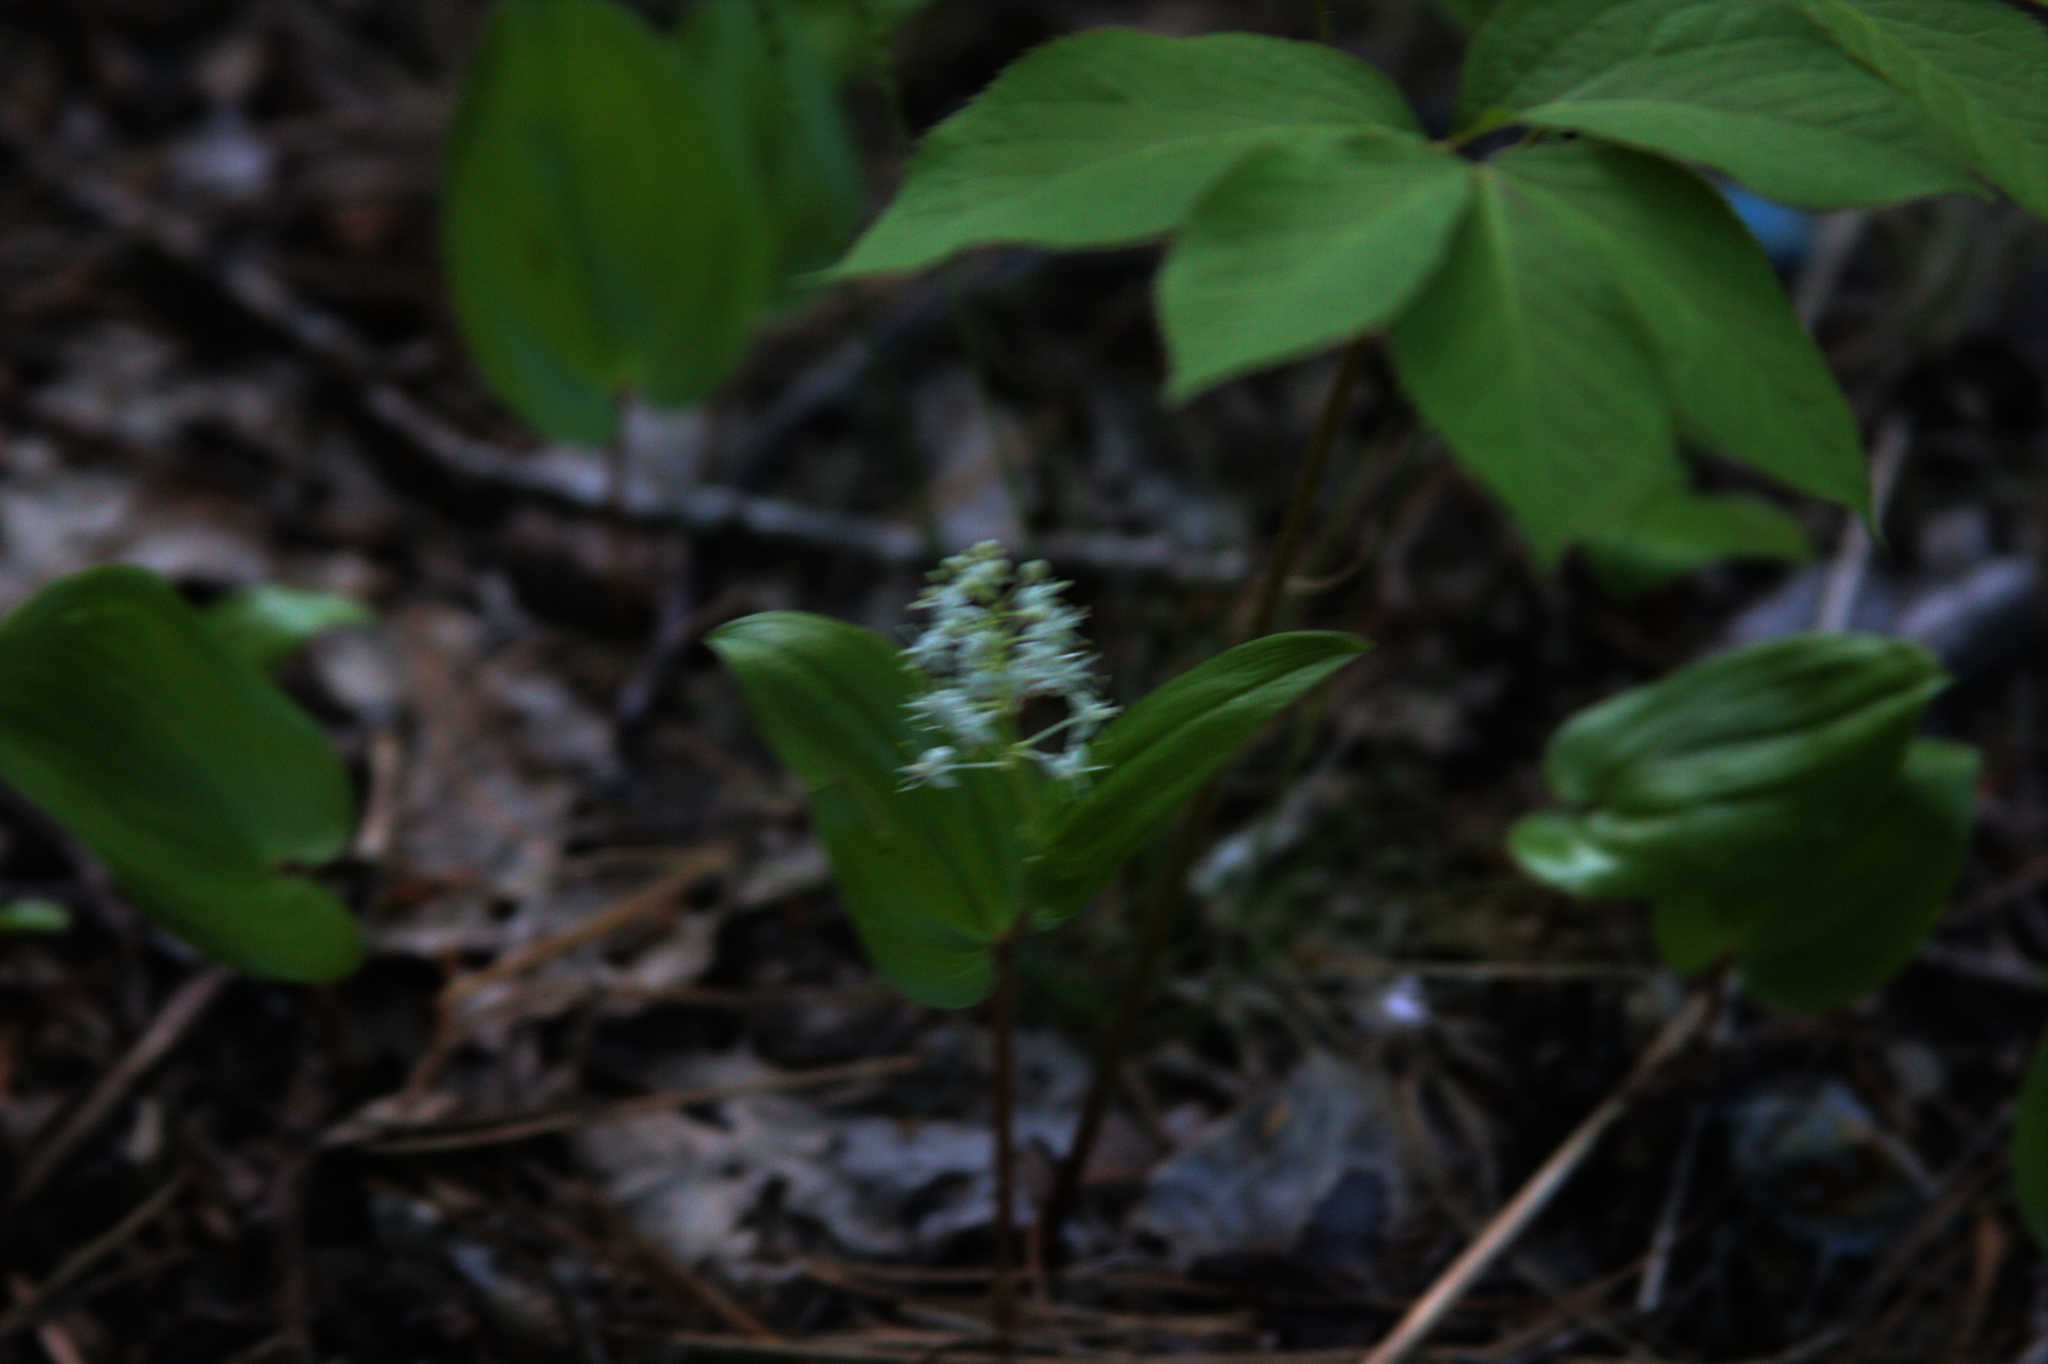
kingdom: Plantae
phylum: Tracheophyta
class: Liliopsida
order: Asparagales
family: Asparagaceae
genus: Maianthemum
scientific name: Maianthemum canadense
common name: False lily-of-the-valley
